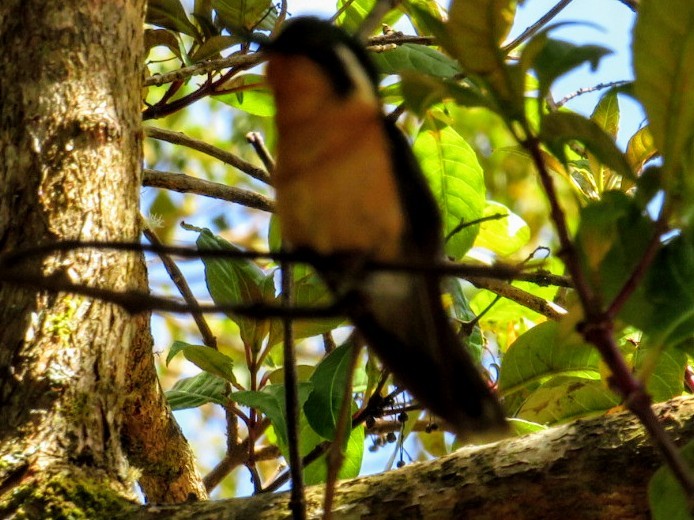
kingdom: Animalia
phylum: Chordata
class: Aves
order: Apodiformes
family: Trochilidae
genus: Lampornis
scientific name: Lampornis
